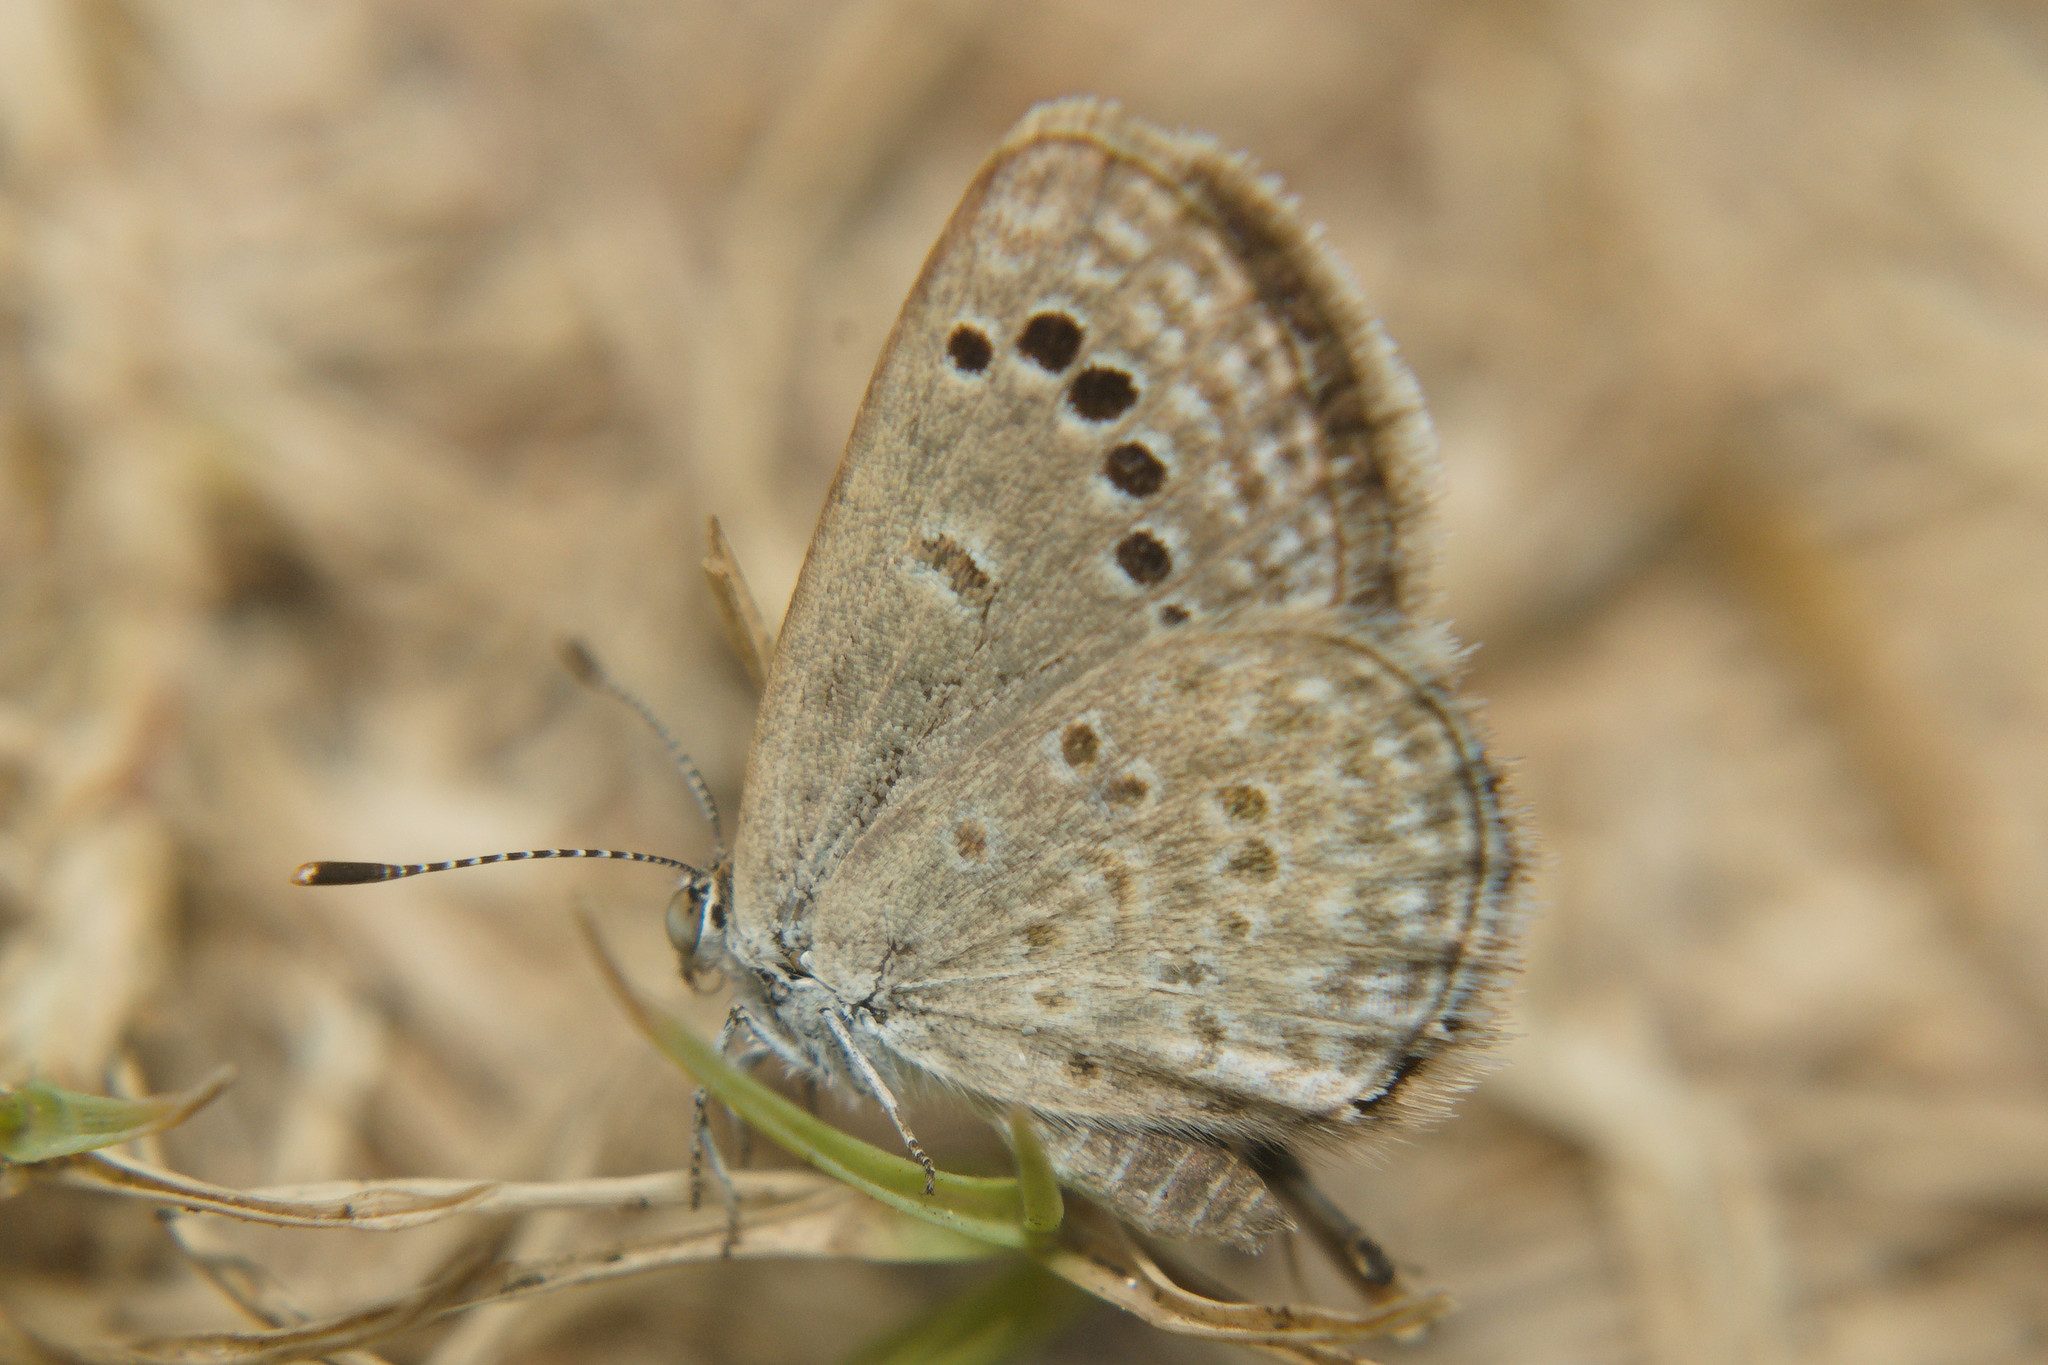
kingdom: Animalia
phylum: Arthropoda
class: Insecta
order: Lepidoptera
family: Lycaenidae
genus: Zizina
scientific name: Zizina otis
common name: Lesser grass blue
